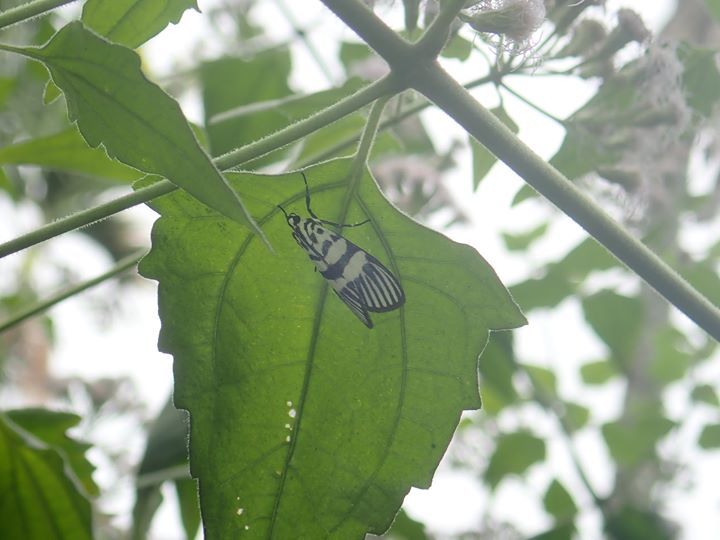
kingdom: Animalia
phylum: Arthropoda
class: Insecta
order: Lepidoptera
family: Crambidae
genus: Heortia
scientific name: Heortia vitessoides
